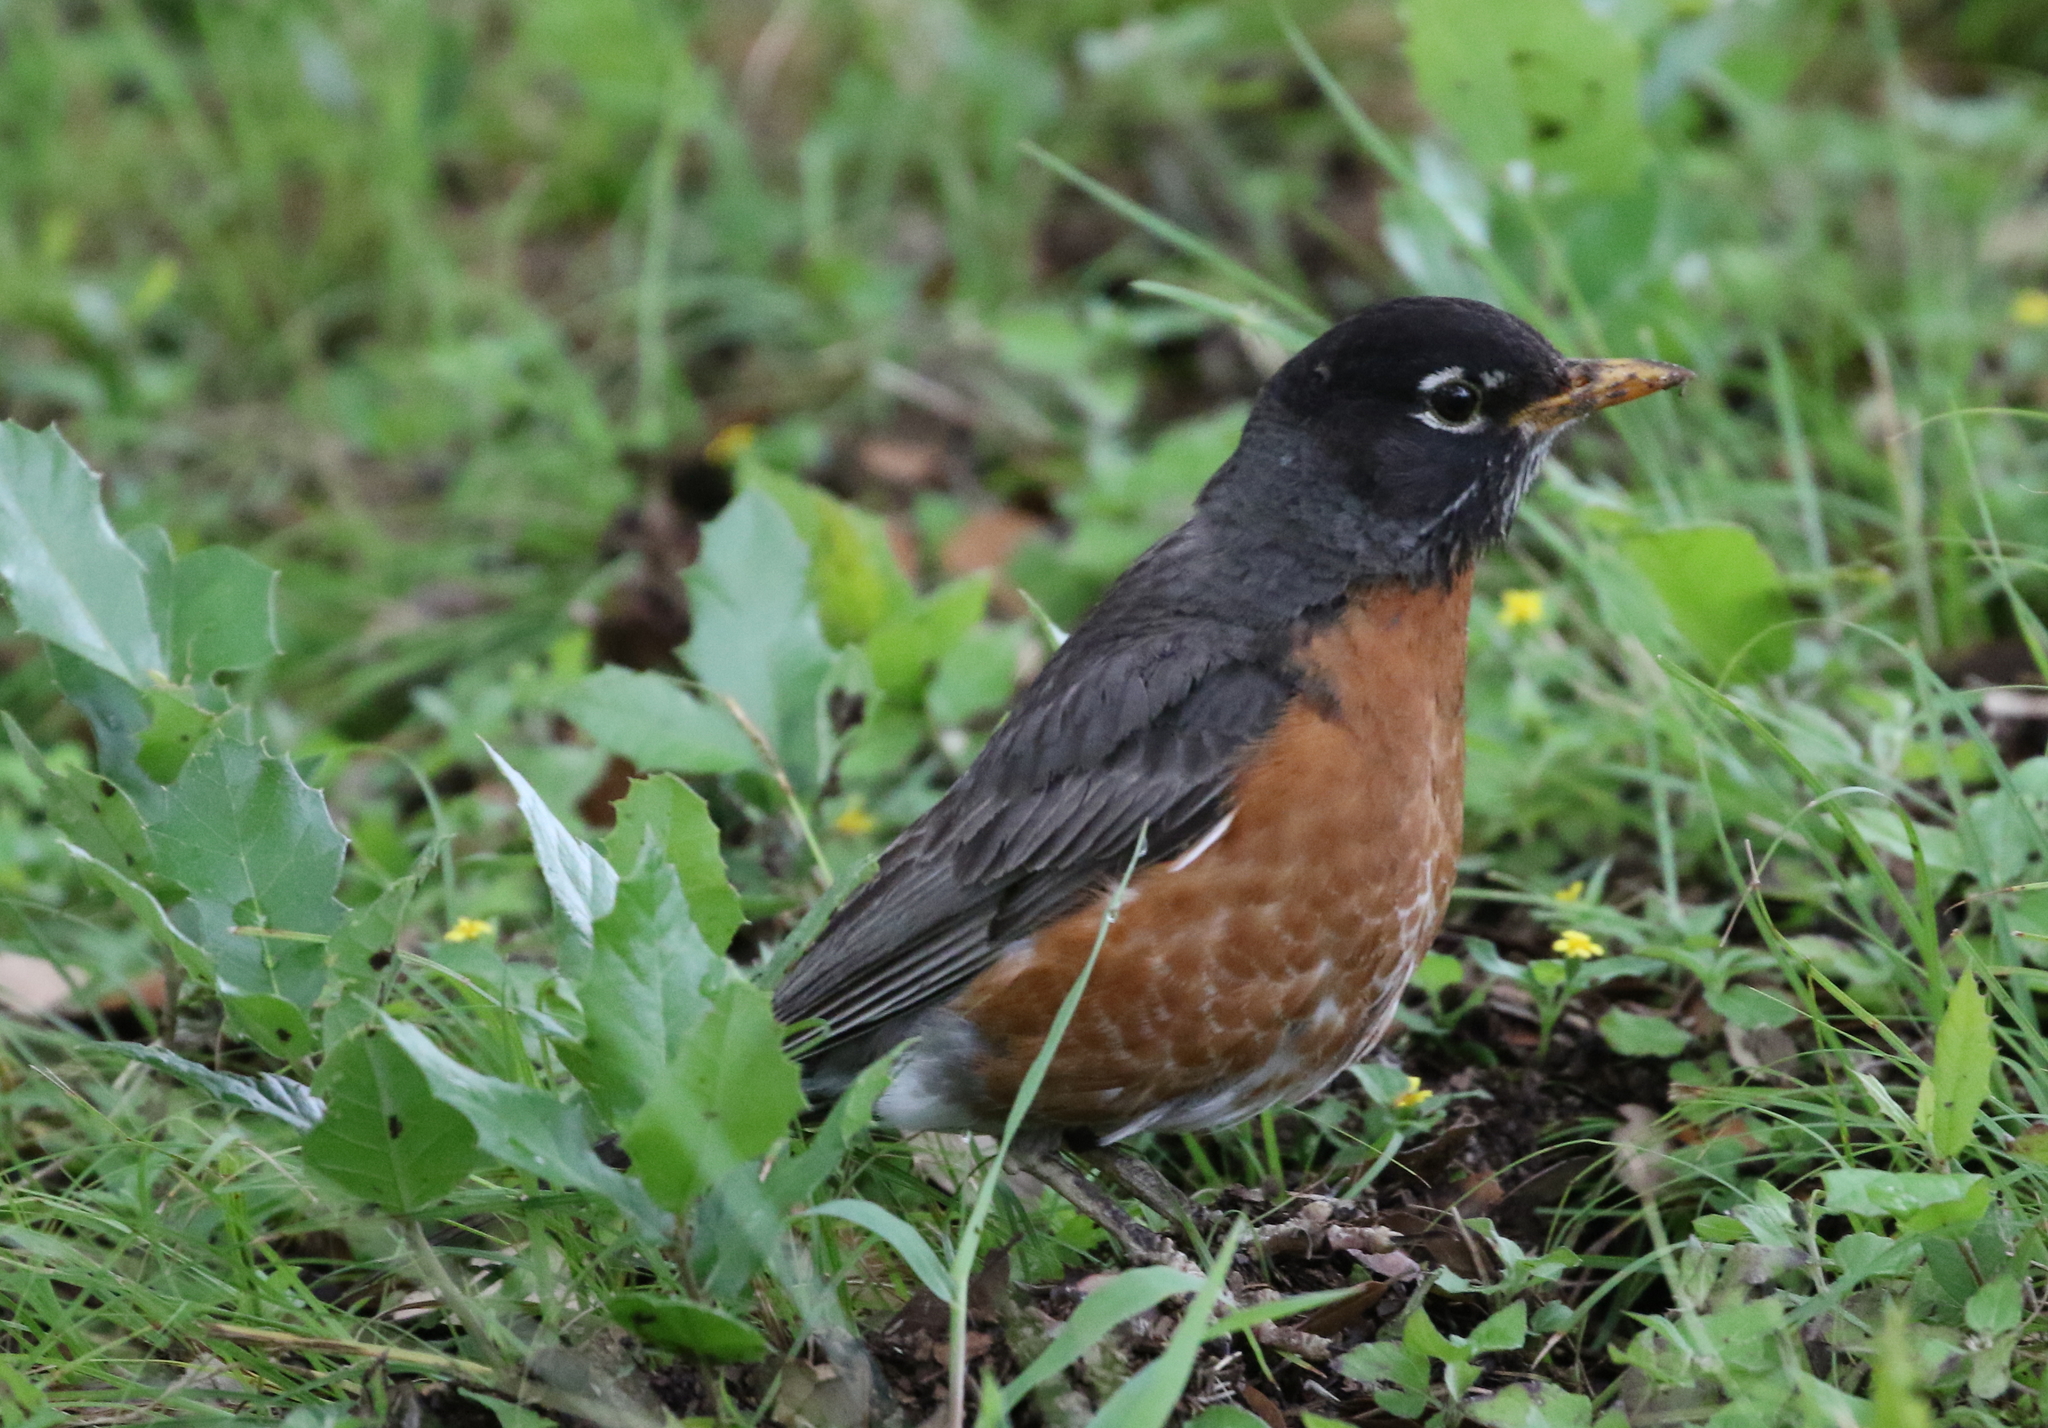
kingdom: Animalia
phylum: Chordata
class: Aves
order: Passeriformes
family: Turdidae
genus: Turdus
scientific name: Turdus migratorius
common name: American robin
